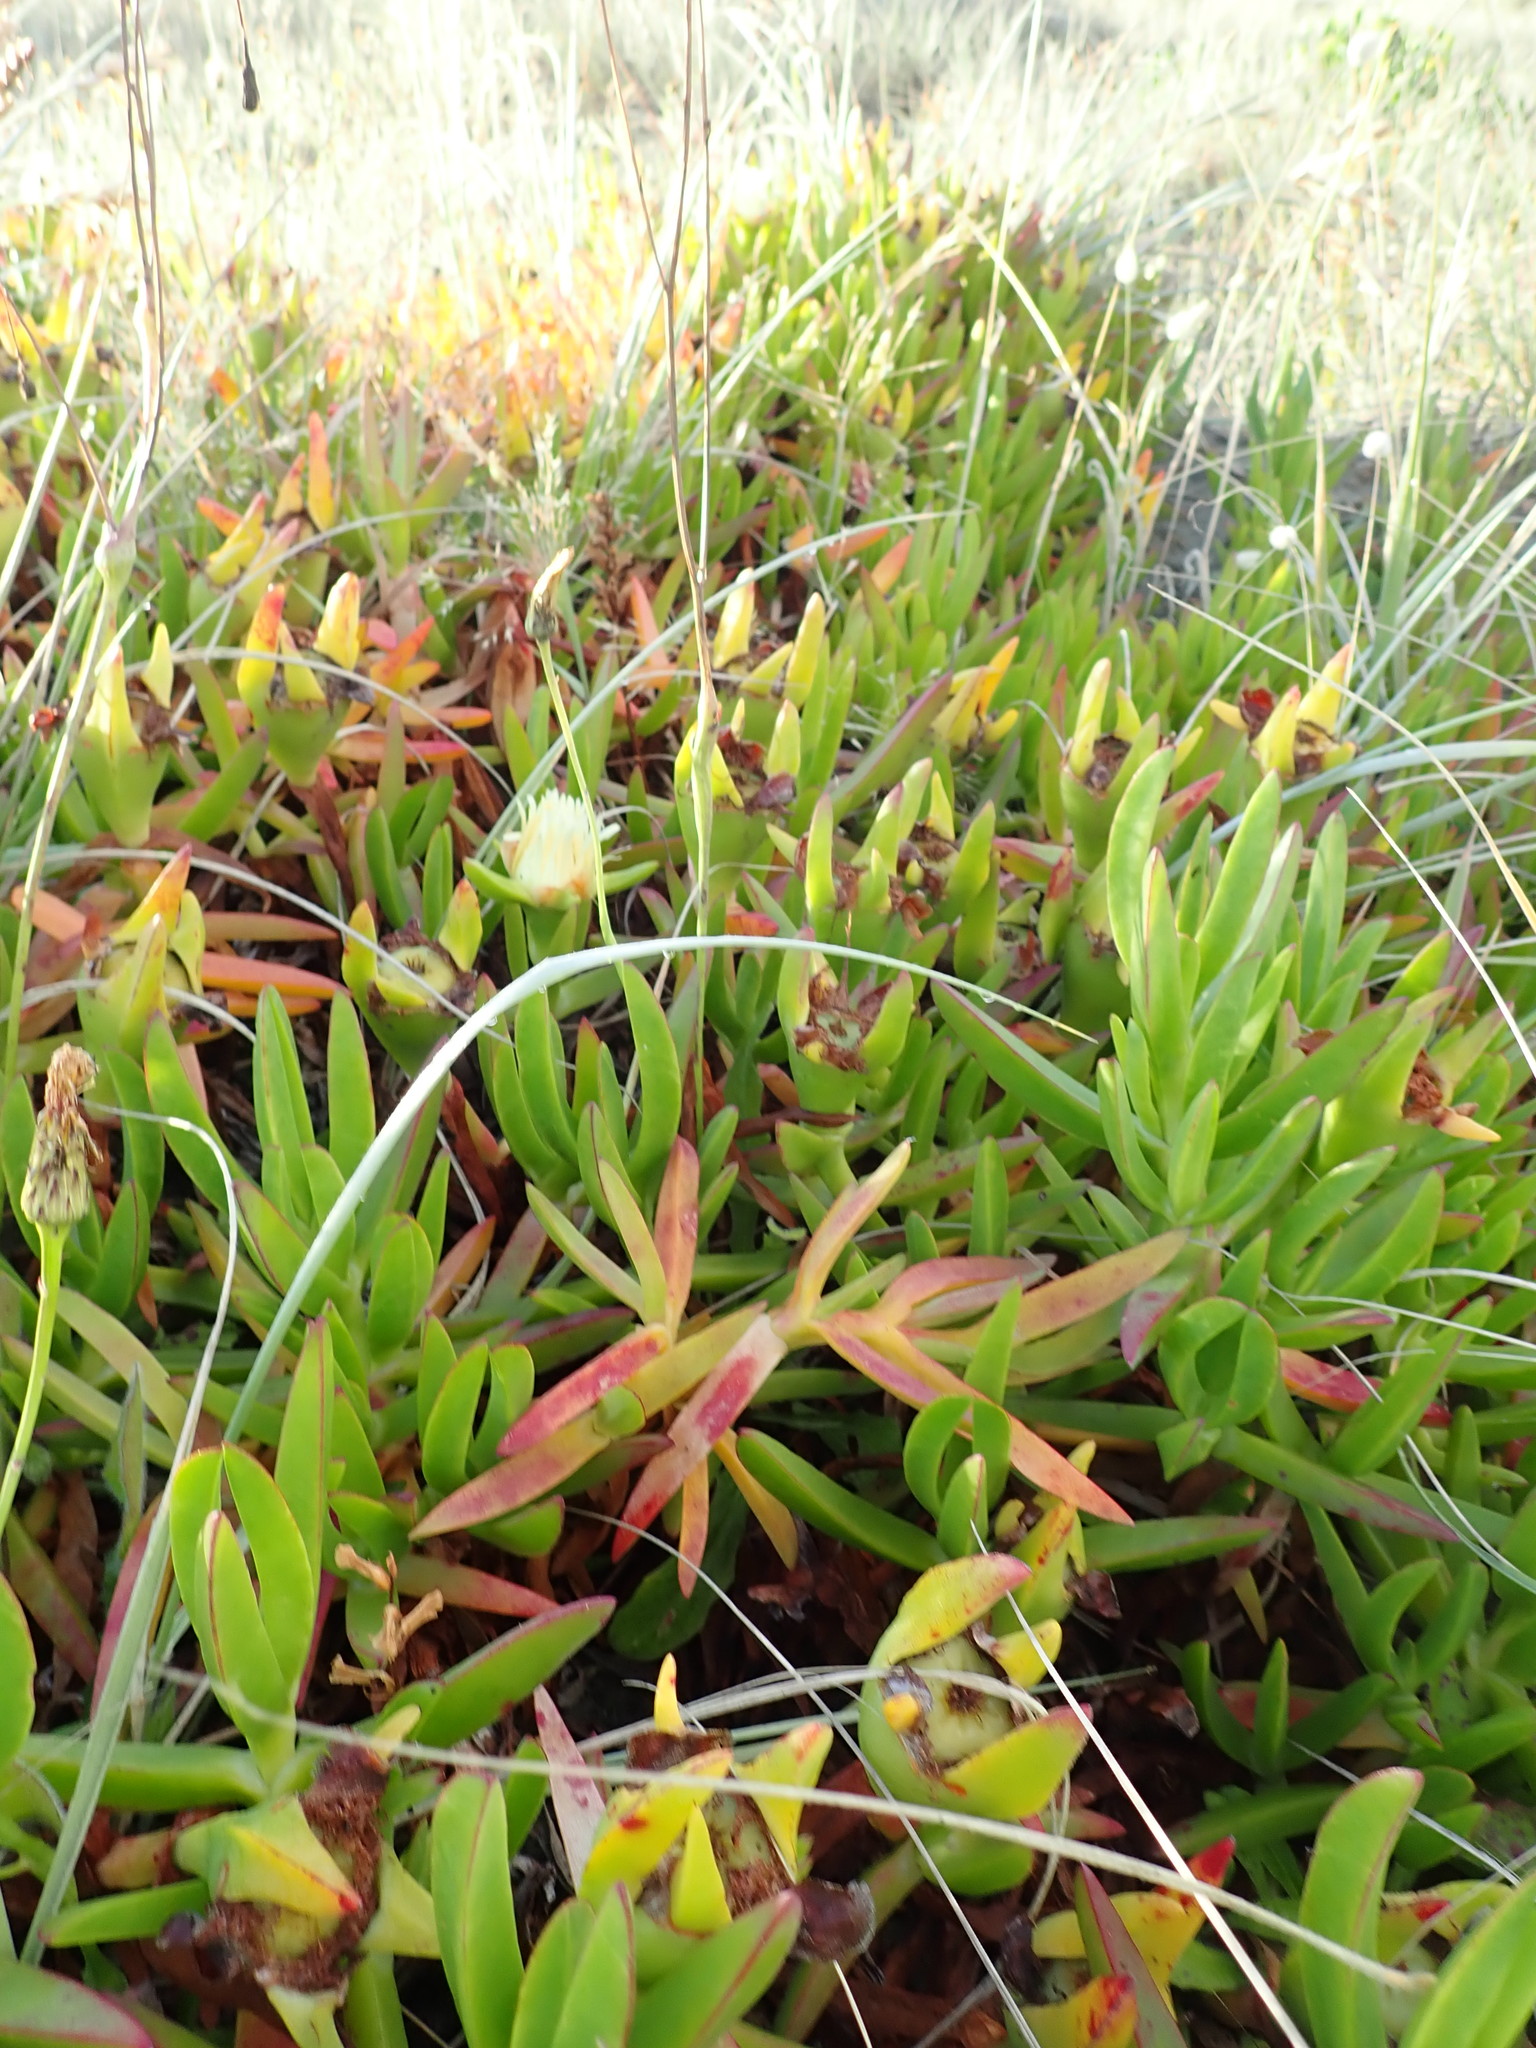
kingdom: Plantae
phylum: Tracheophyta
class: Magnoliopsida
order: Caryophyllales
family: Aizoaceae
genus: Carpobrotus
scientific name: Carpobrotus edulis
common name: Hottentot-fig
